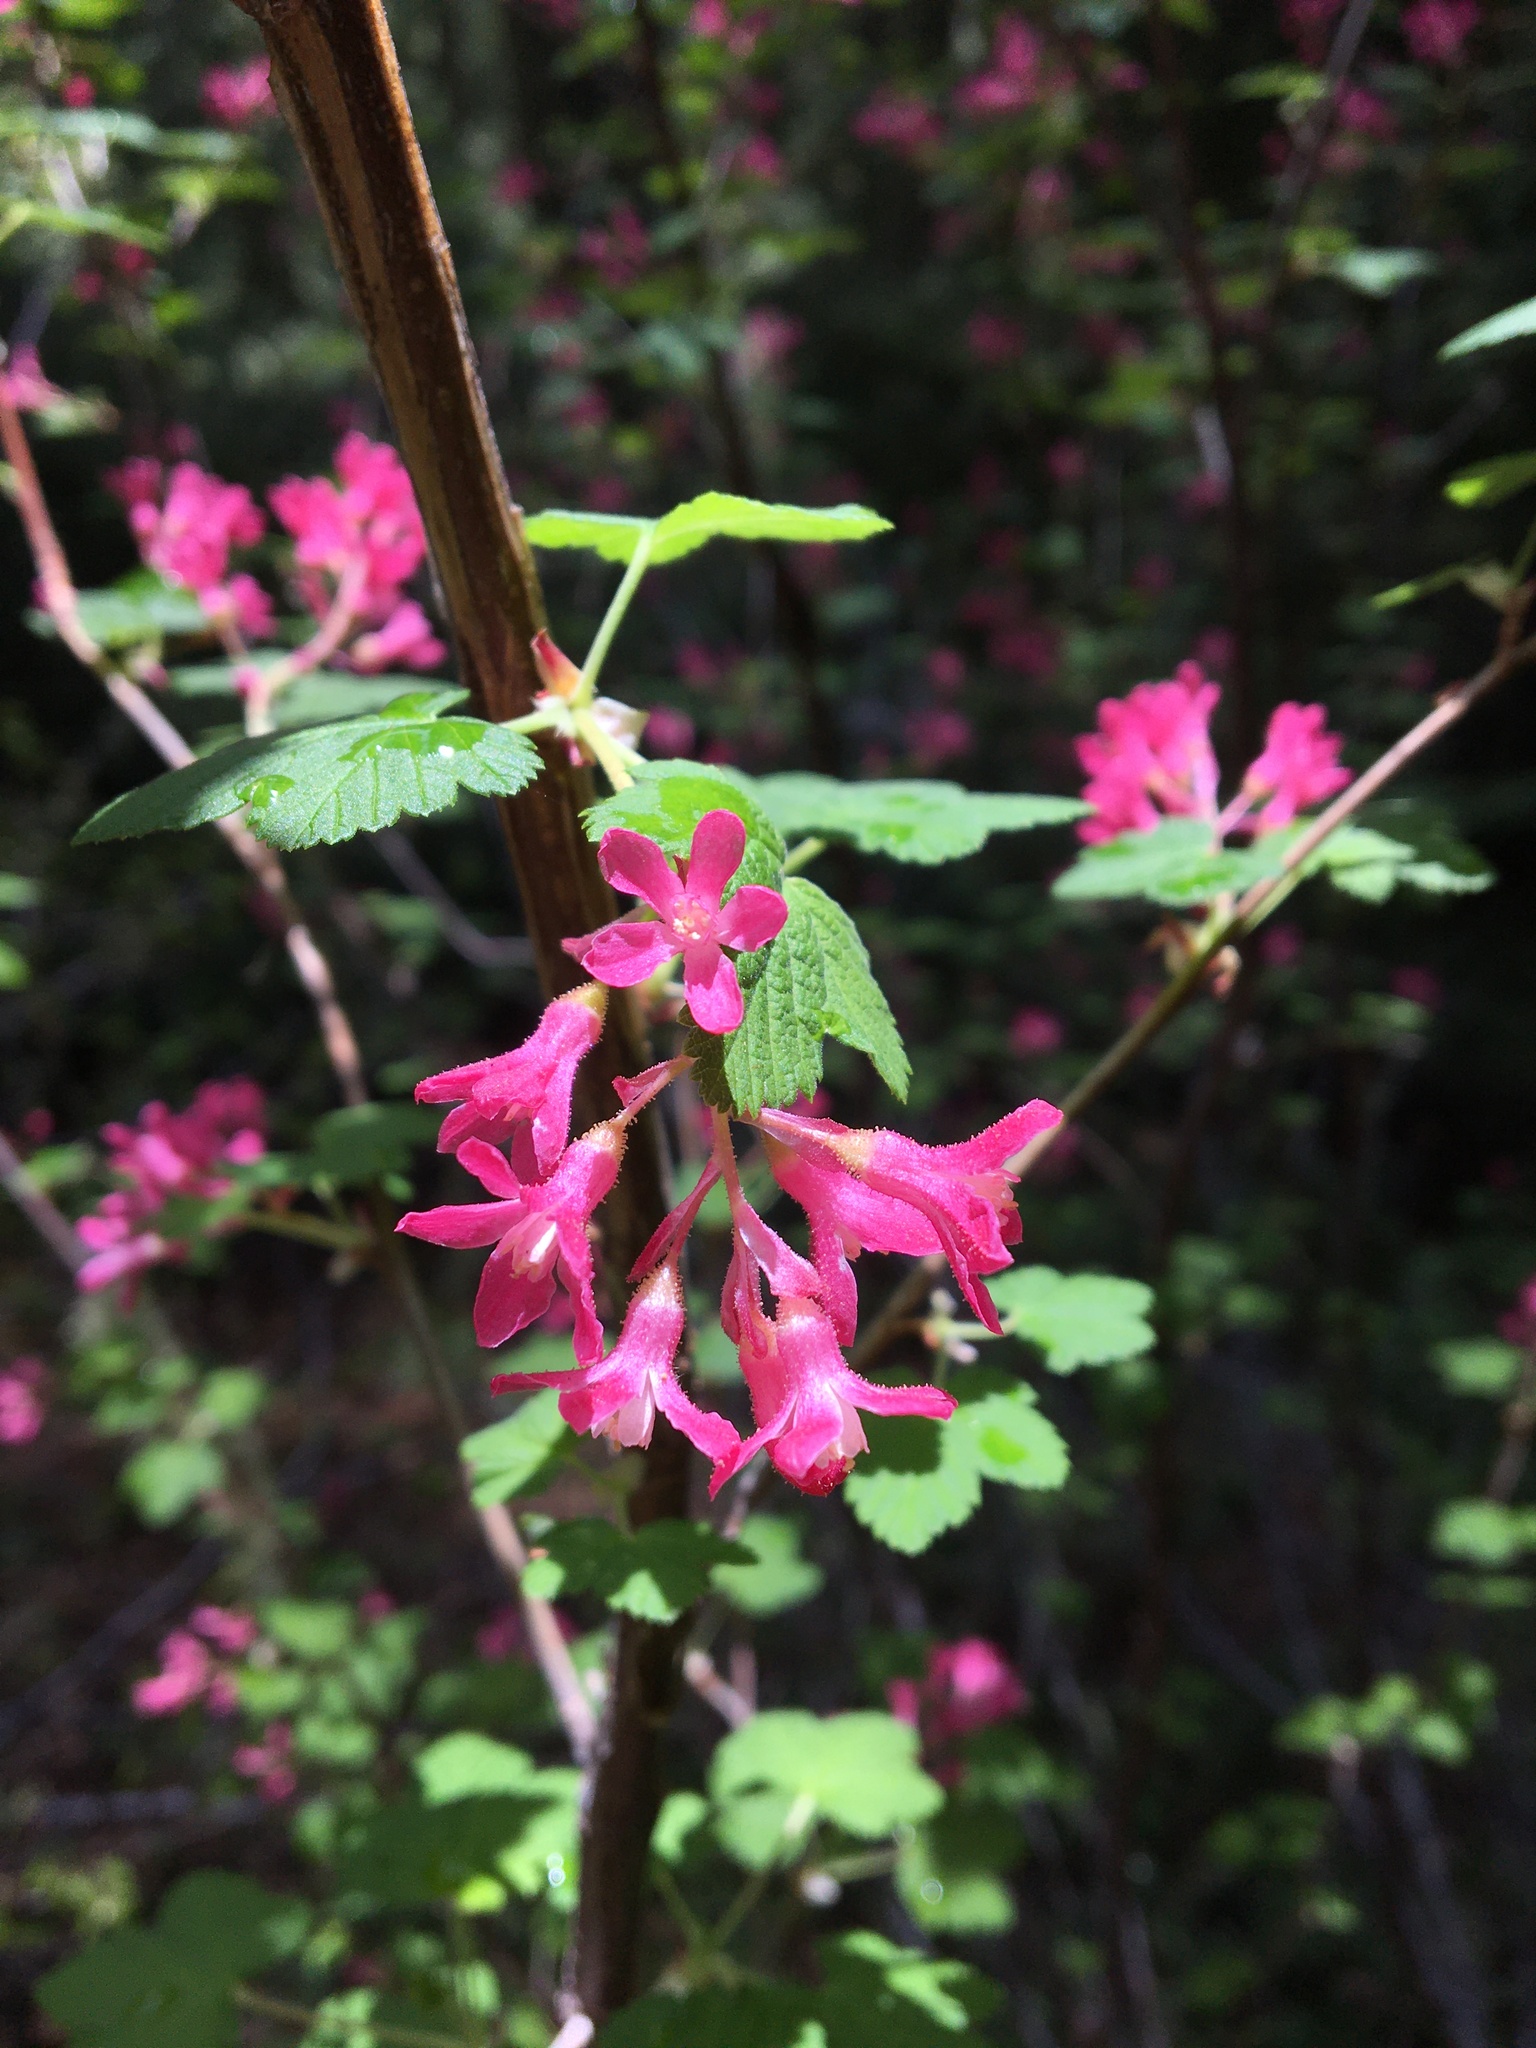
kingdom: Plantae
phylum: Tracheophyta
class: Magnoliopsida
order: Saxifragales
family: Grossulariaceae
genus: Ribes
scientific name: Ribes sanguineum
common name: Flowering currant
